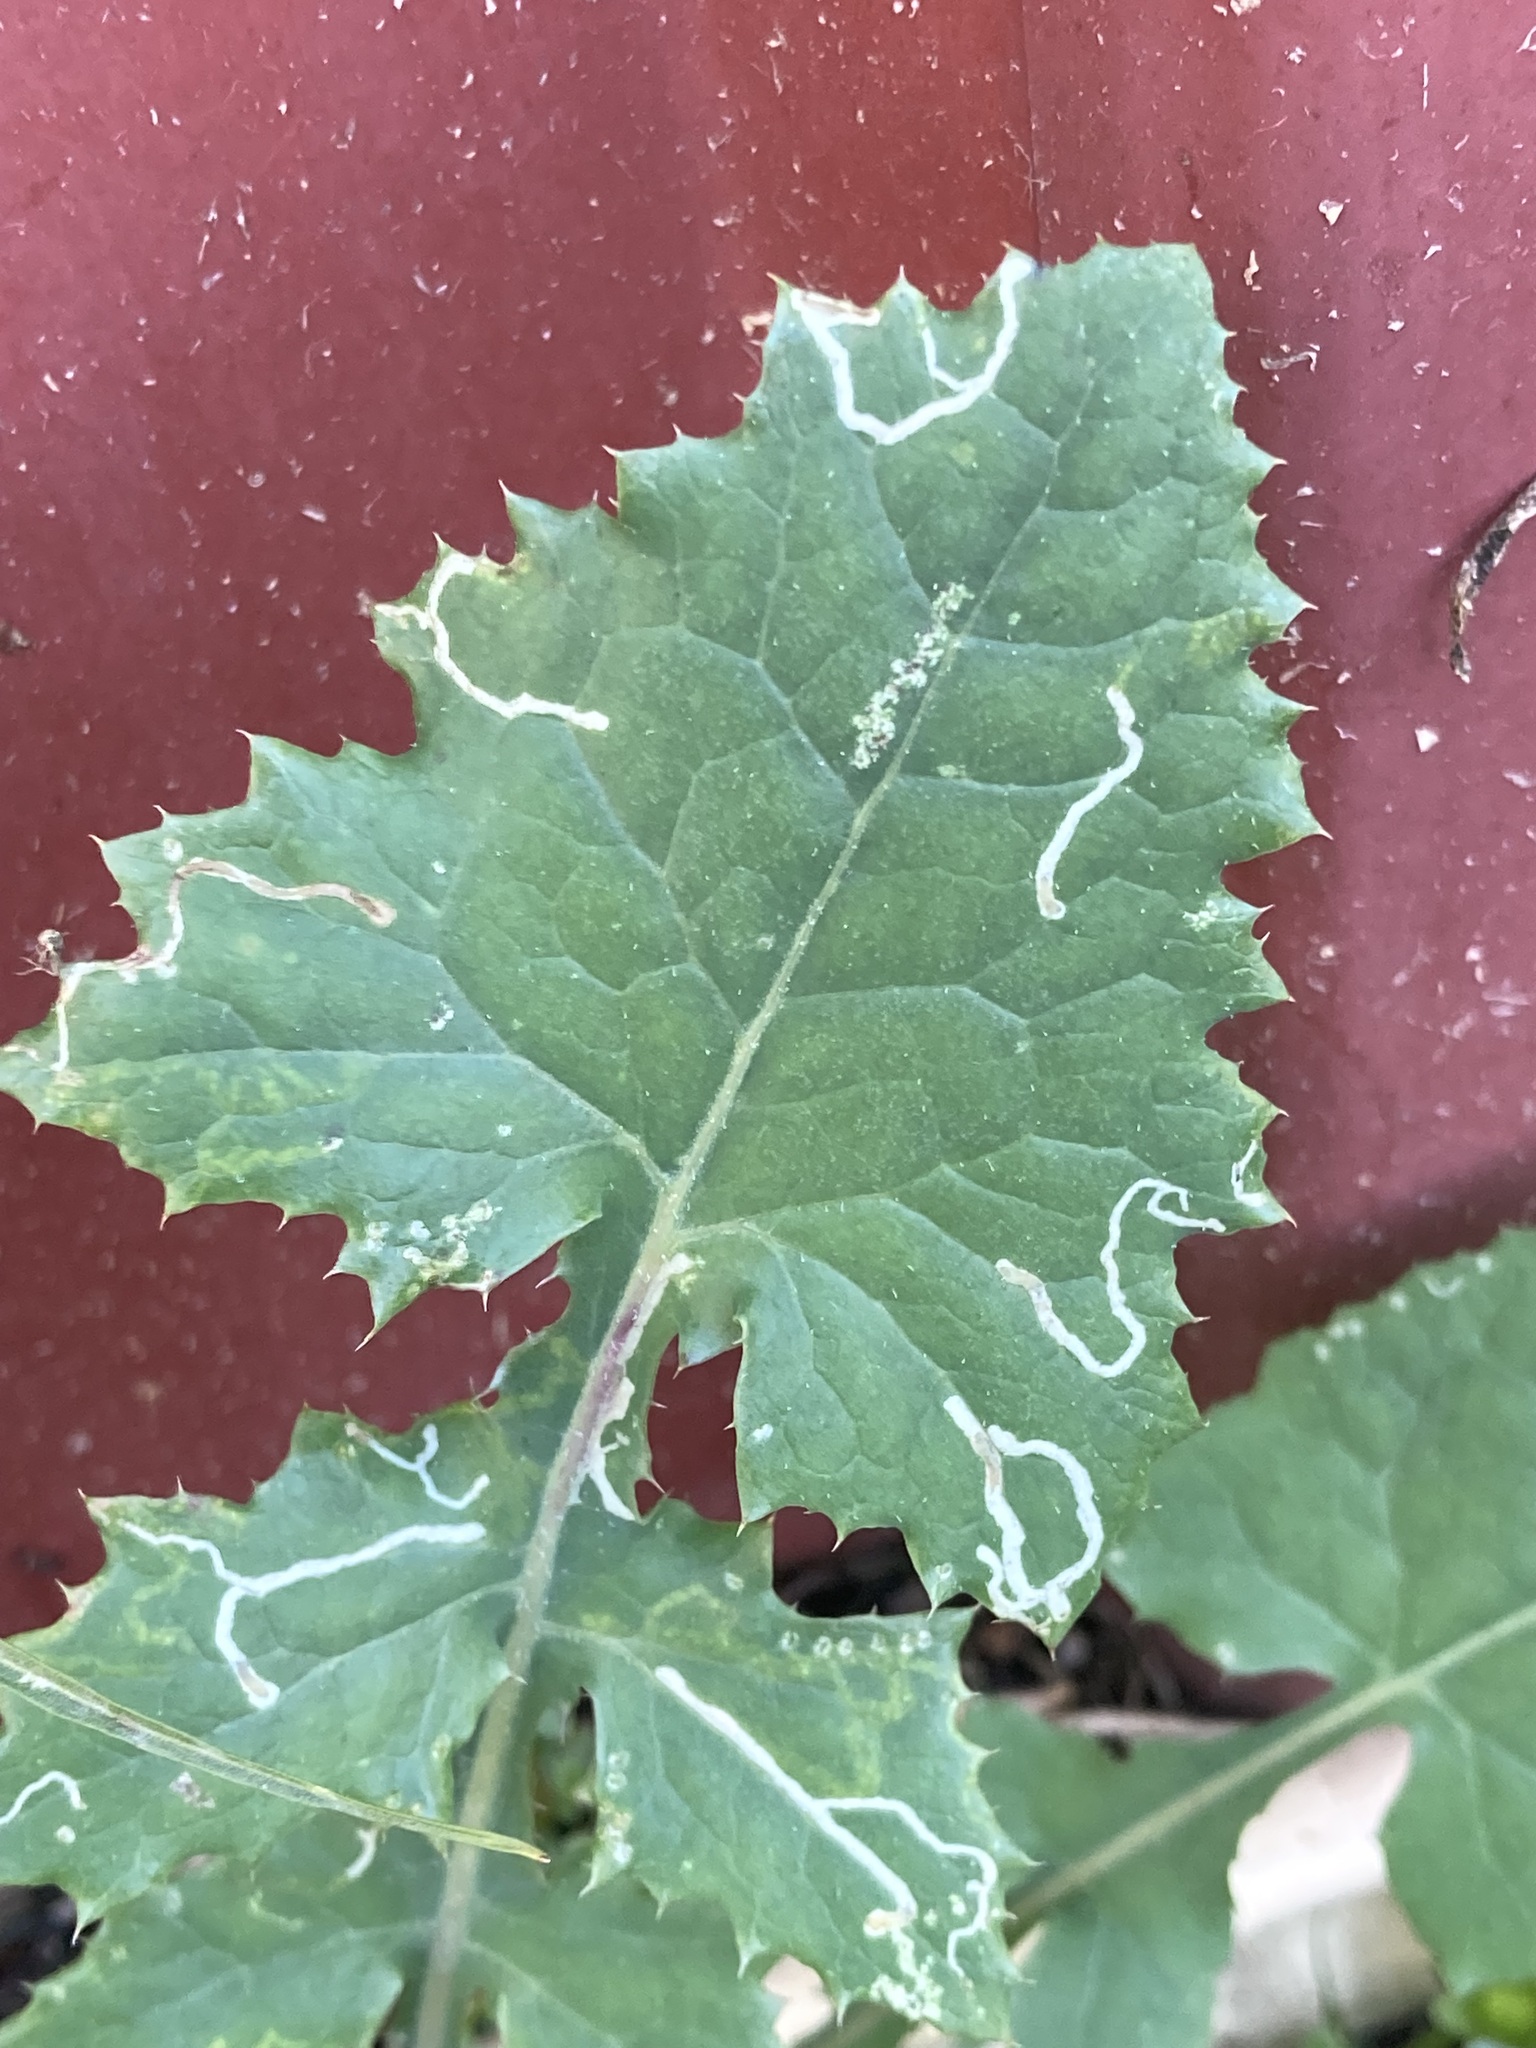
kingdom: Animalia
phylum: Arthropoda
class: Insecta
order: Diptera
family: Agromyzidae
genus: Phytomyza
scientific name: Phytomyza syngenesiae
